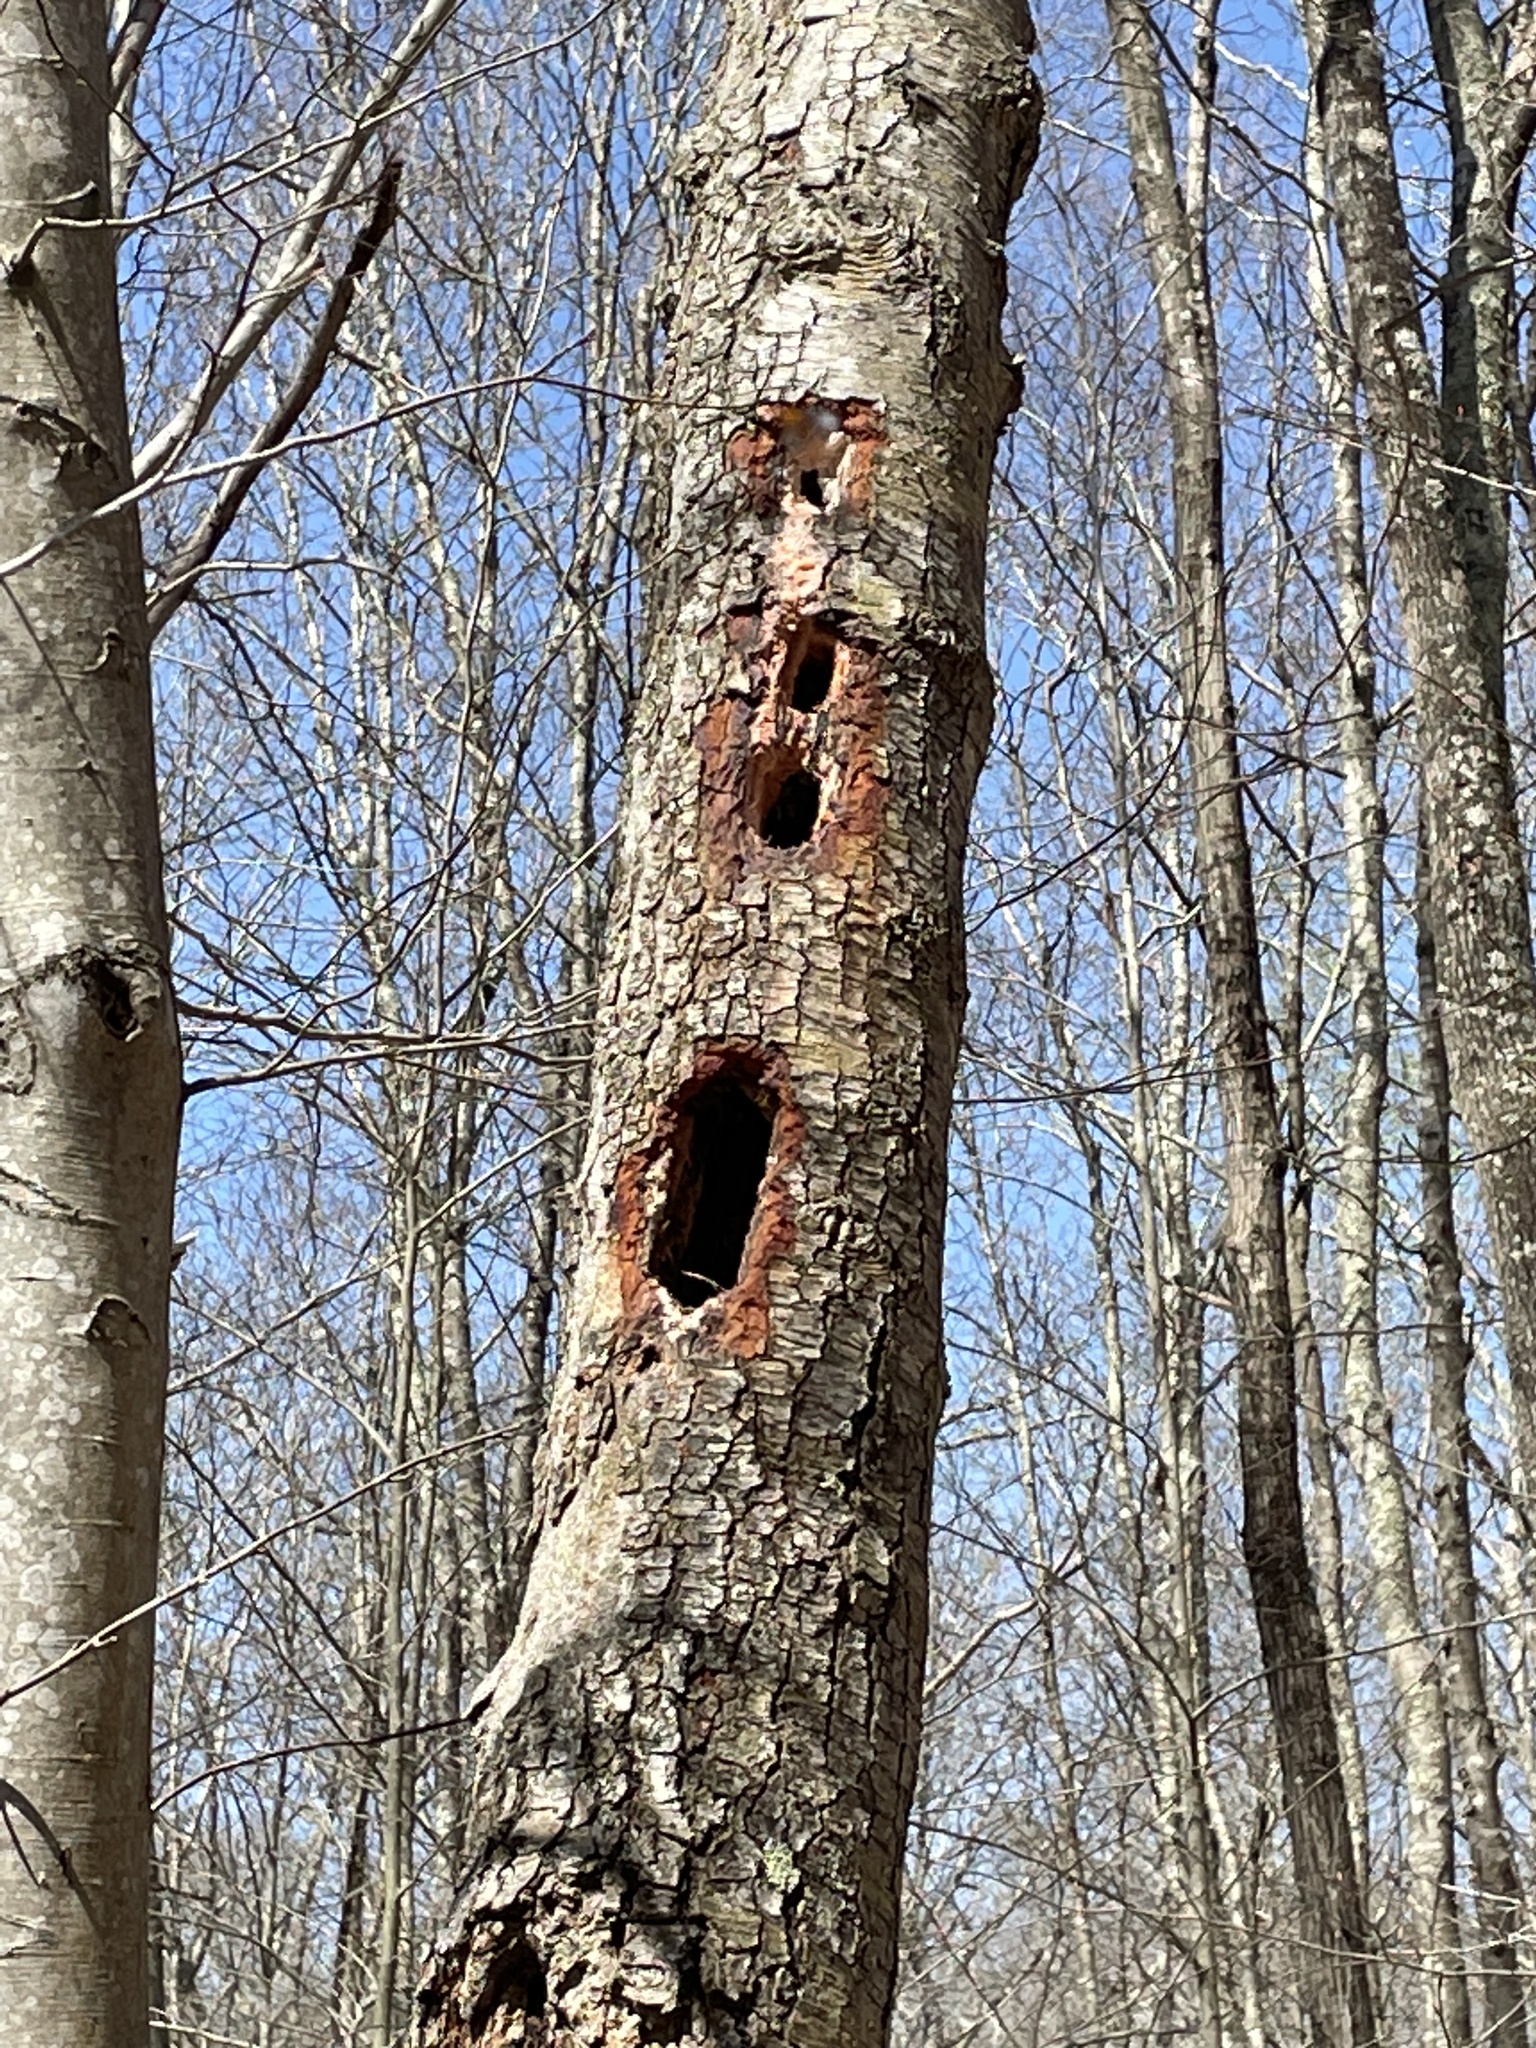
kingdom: Animalia
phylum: Chordata
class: Aves
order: Piciformes
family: Picidae
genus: Dryocopus
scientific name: Dryocopus pileatus
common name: Pileated woodpecker
